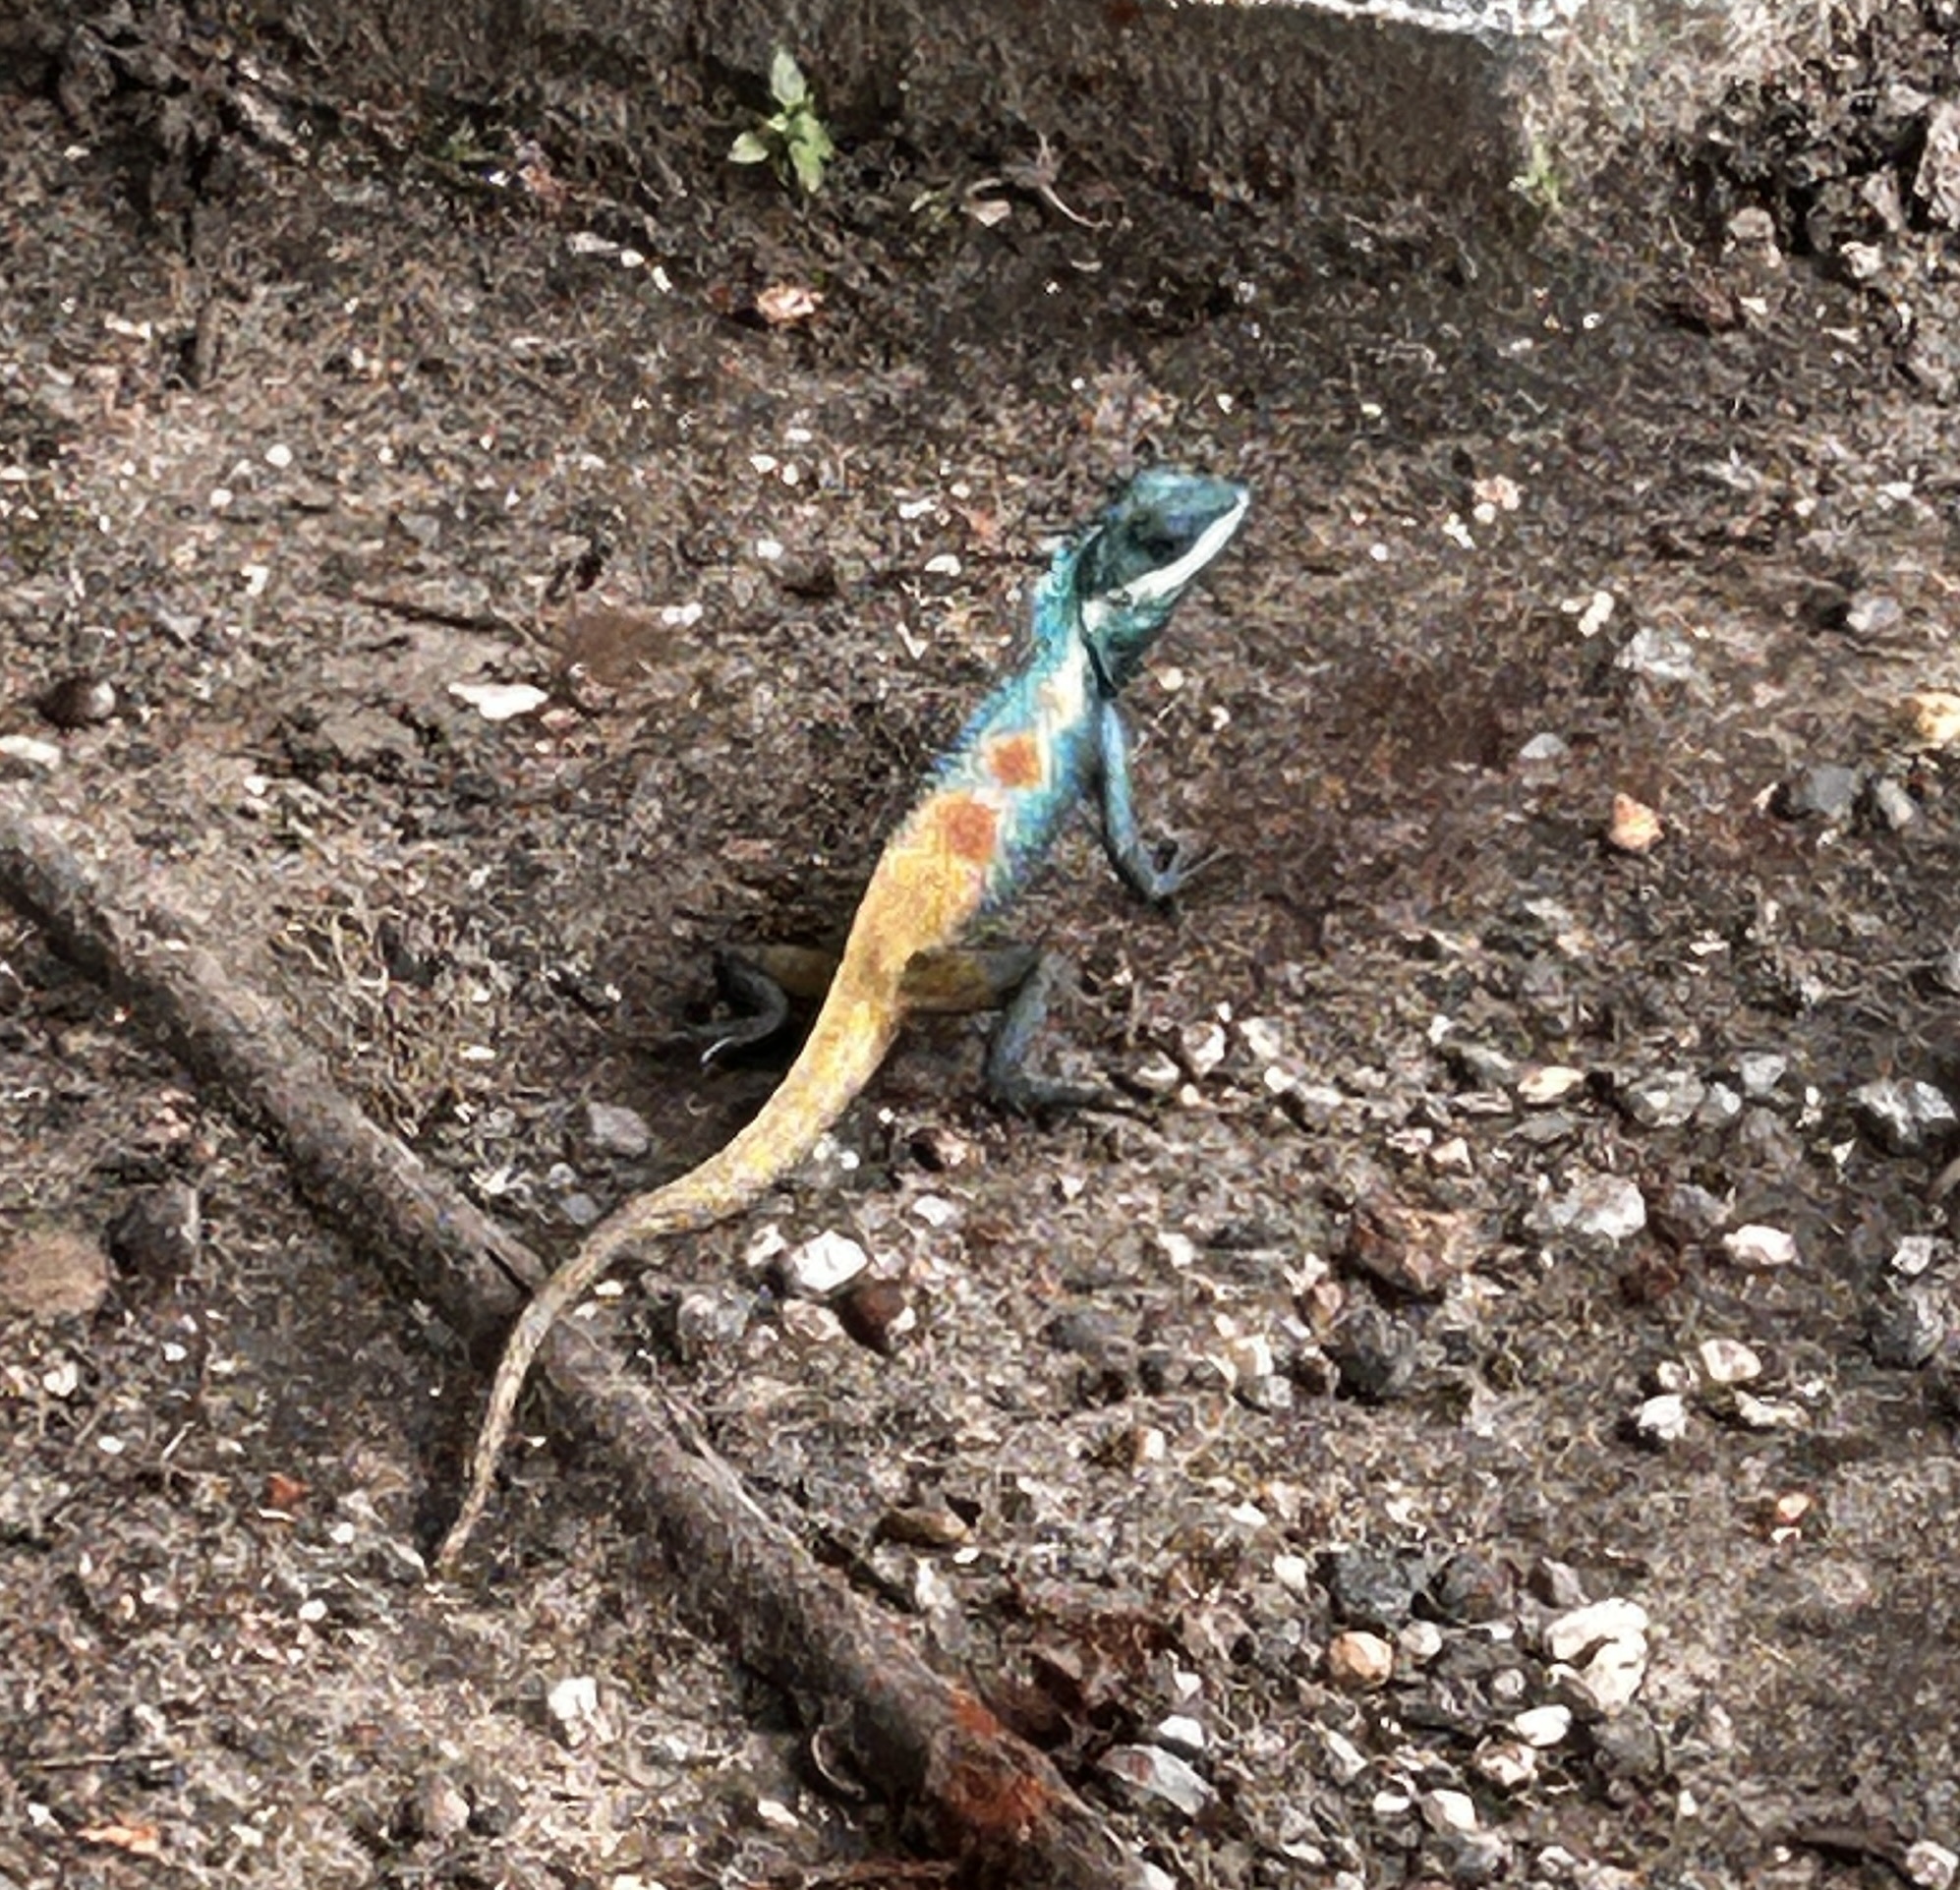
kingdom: Animalia
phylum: Chordata
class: Squamata
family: Agamidae
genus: Calotes
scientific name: Calotes mystaceus
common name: Indo-chinese forest lizard
